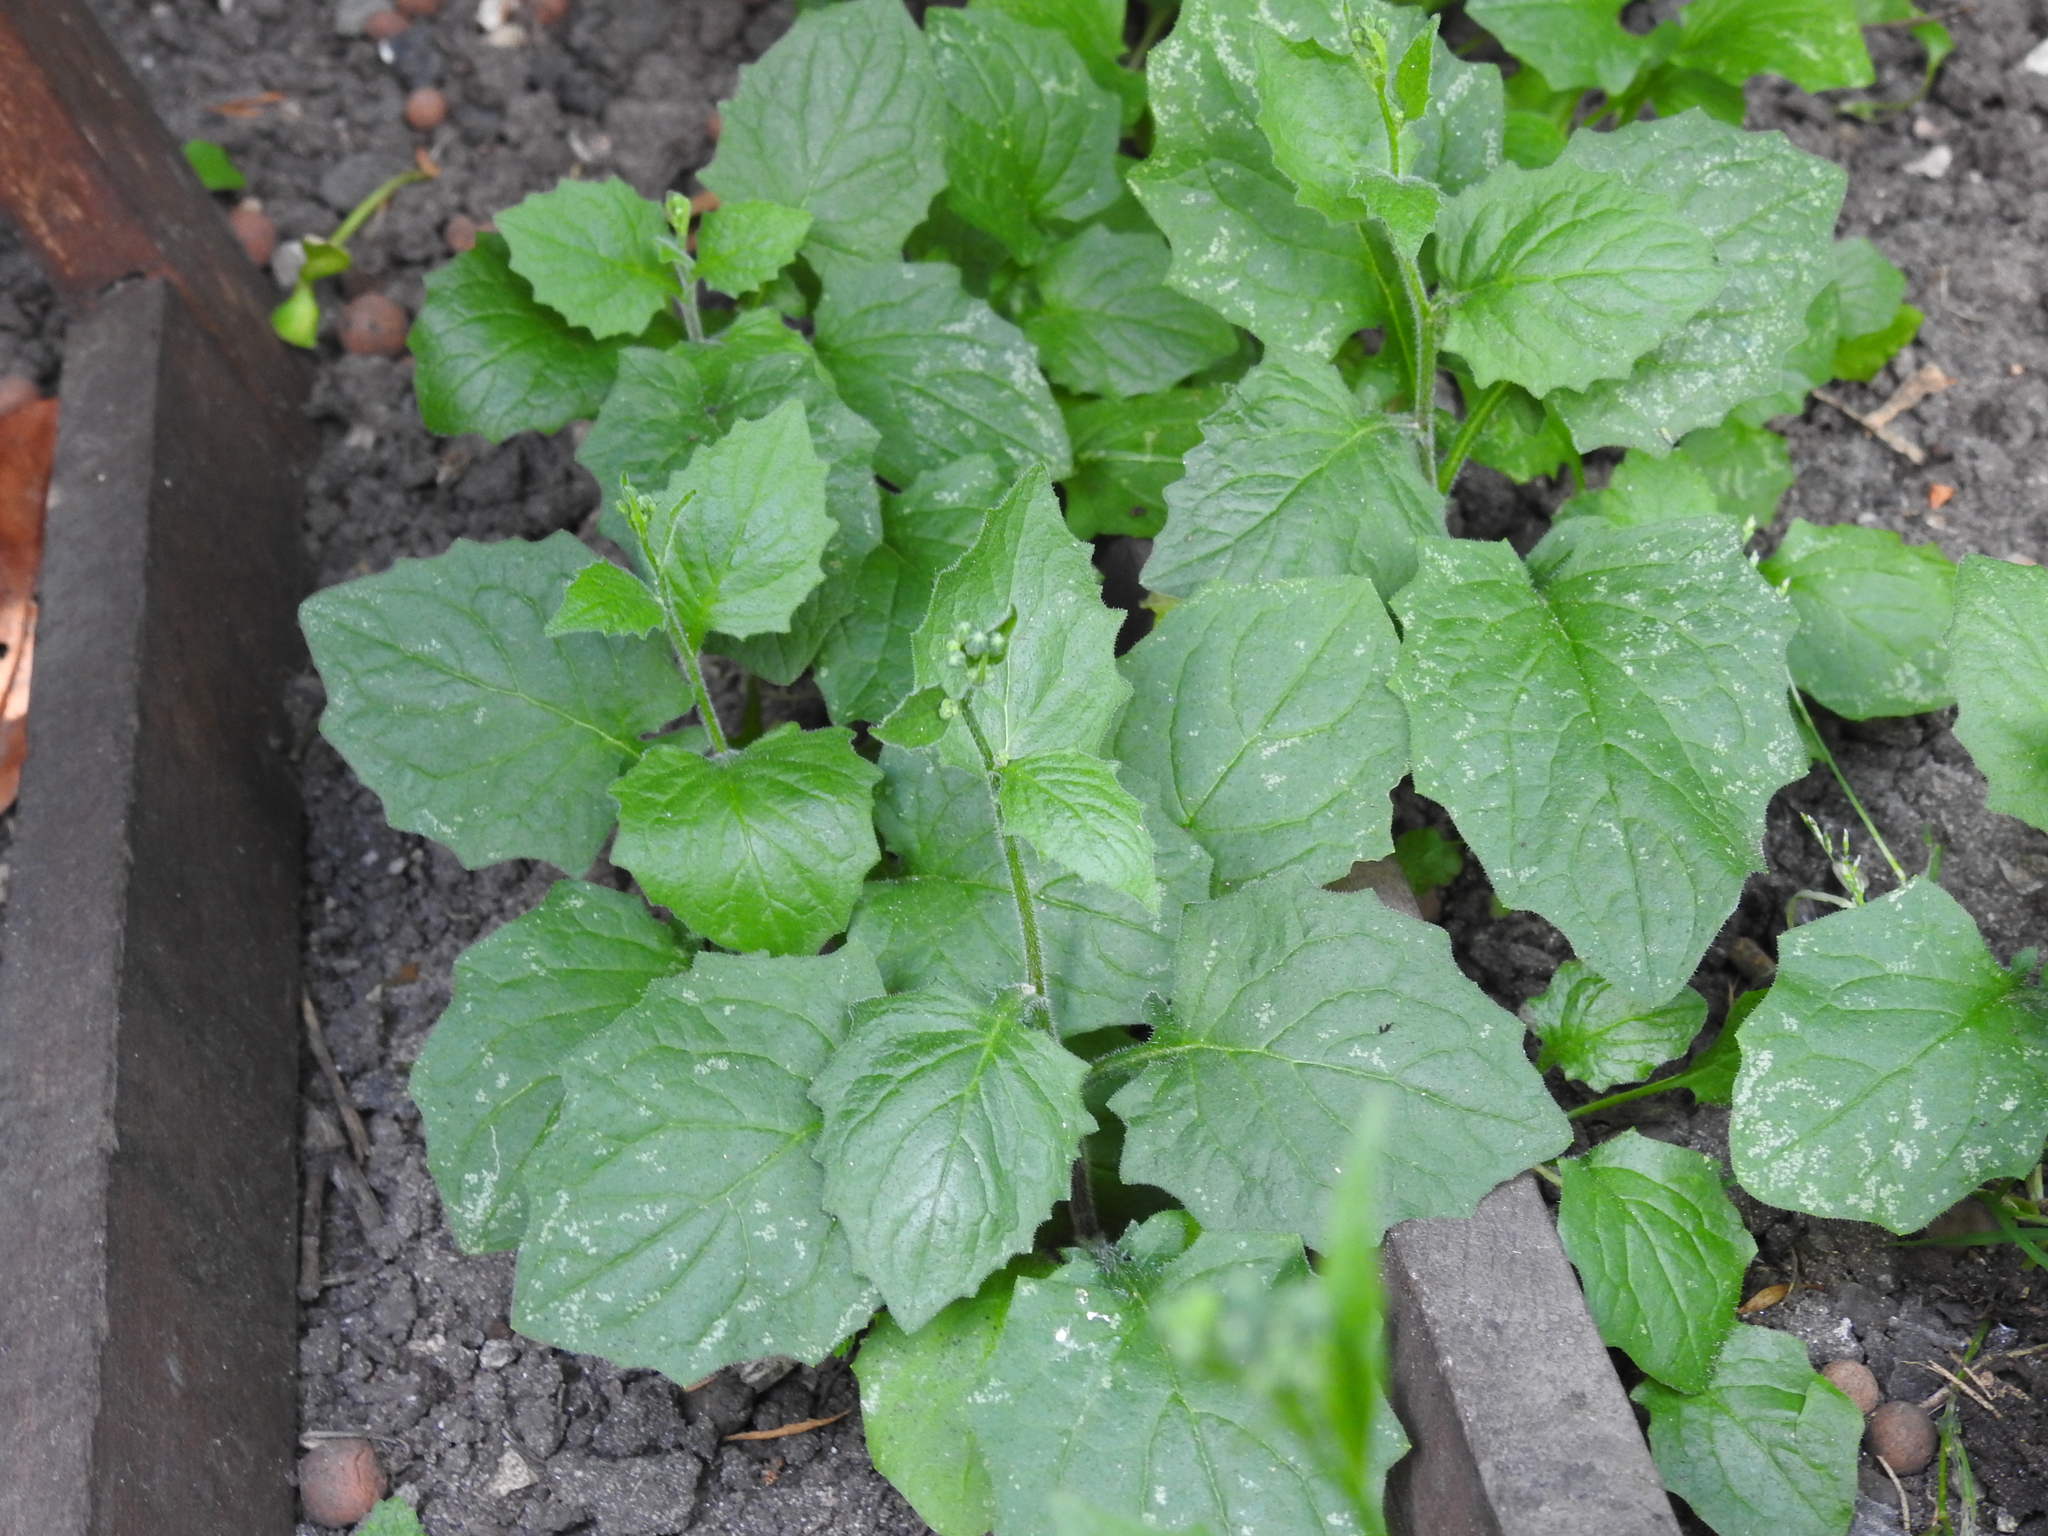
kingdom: Plantae
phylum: Tracheophyta
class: Magnoliopsida
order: Asterales
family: Asteraceae
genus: Lapsana
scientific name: Lapsana communis
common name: Nipplewort
